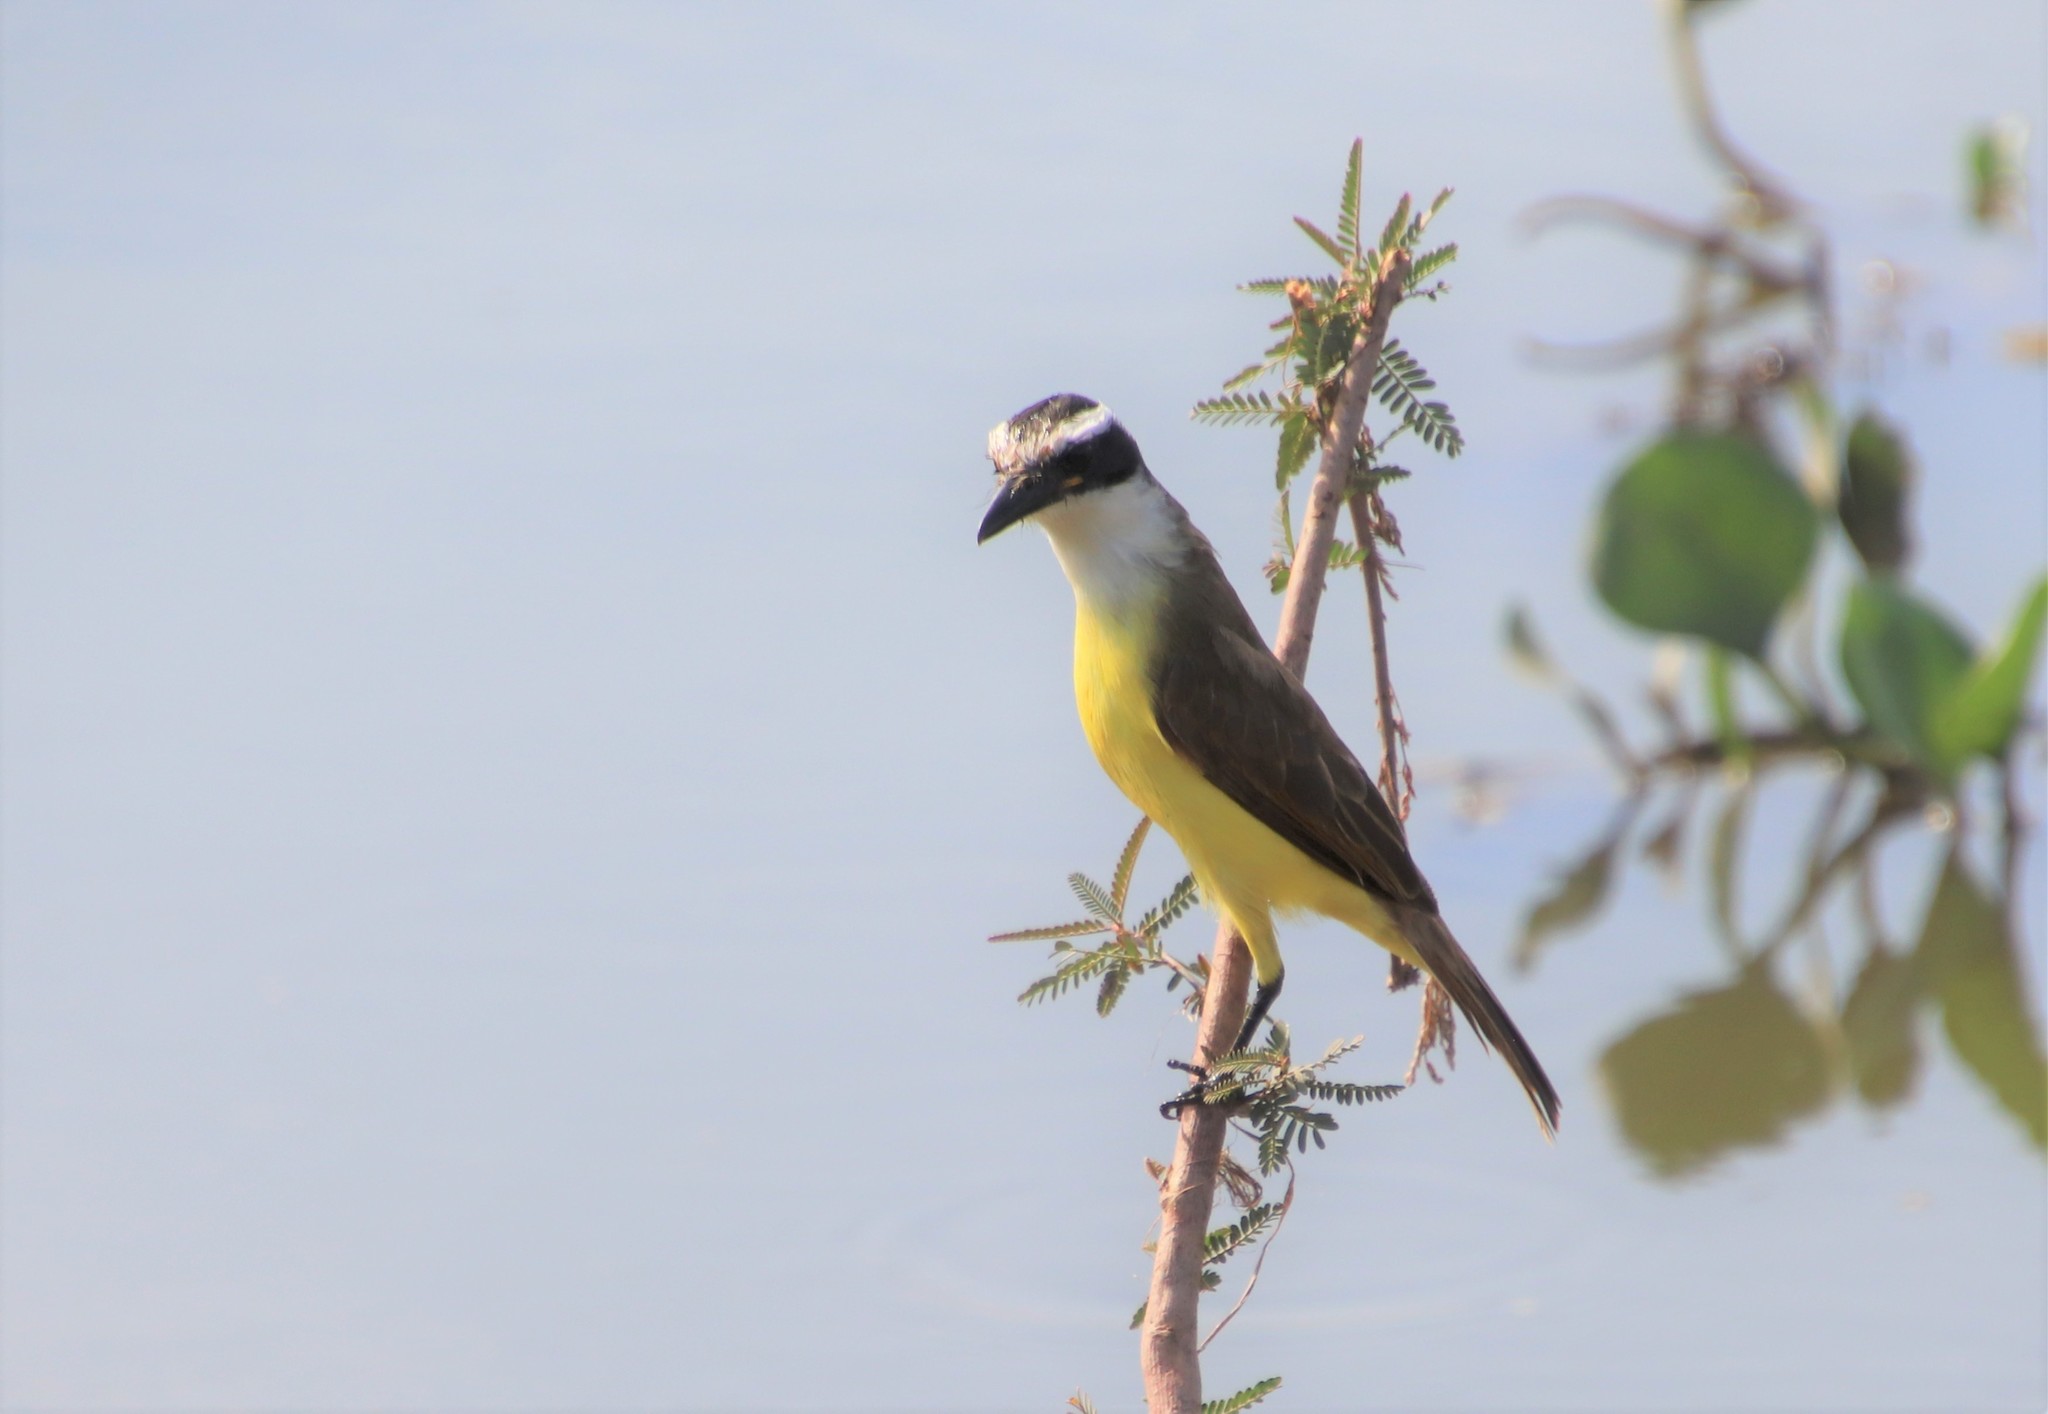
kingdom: Animalia
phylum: Chordata
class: Aves
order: Passeriformes
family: Tyrannidae
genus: Pitangus
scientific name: Pitangus sulphuratus
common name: Great kiskadee
